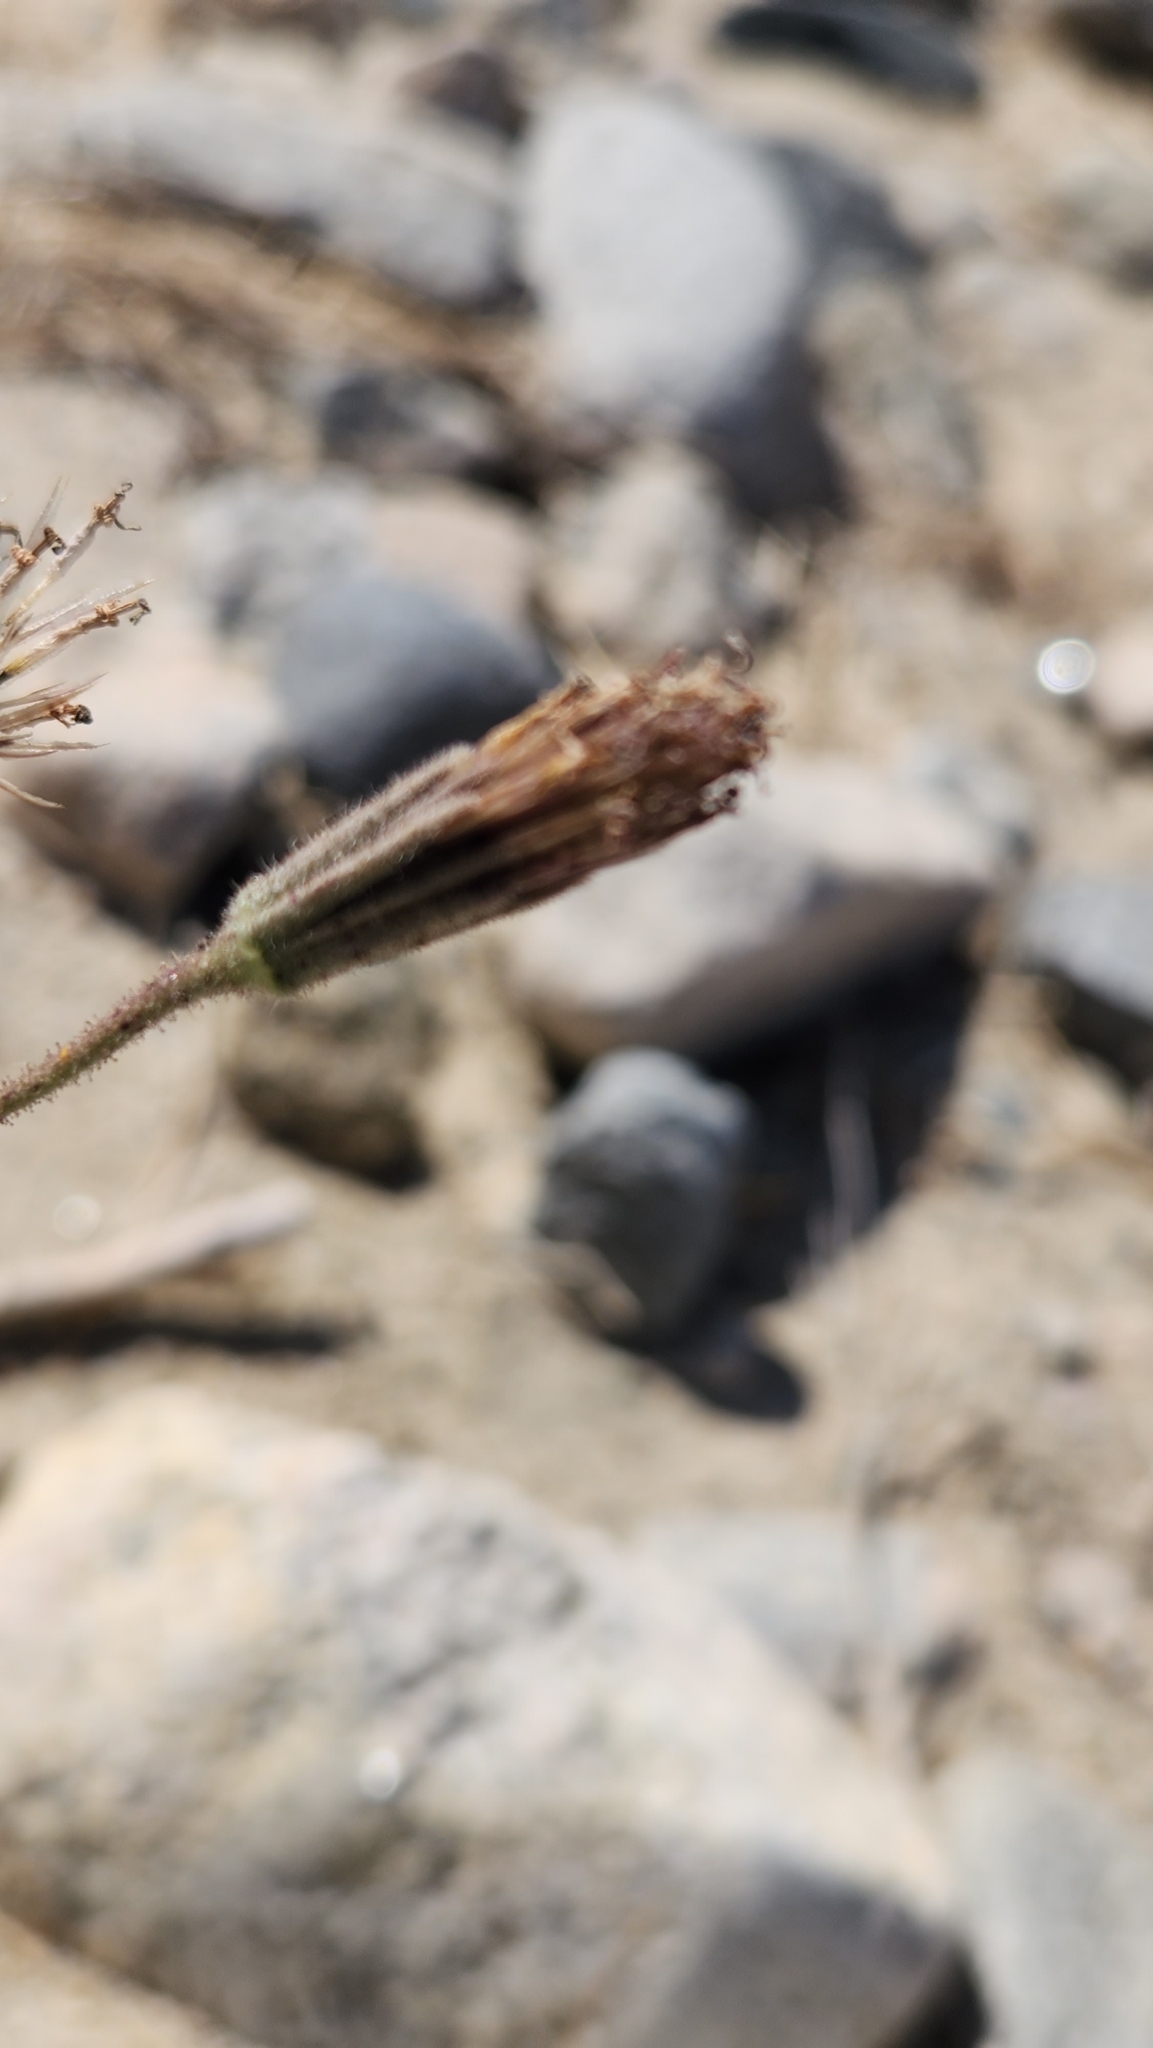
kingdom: Plantae
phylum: Tracheophyta
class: Magnoliopsida
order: Asterales
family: Asteraceae
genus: Palafoxia
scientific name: Palafoxia arida
